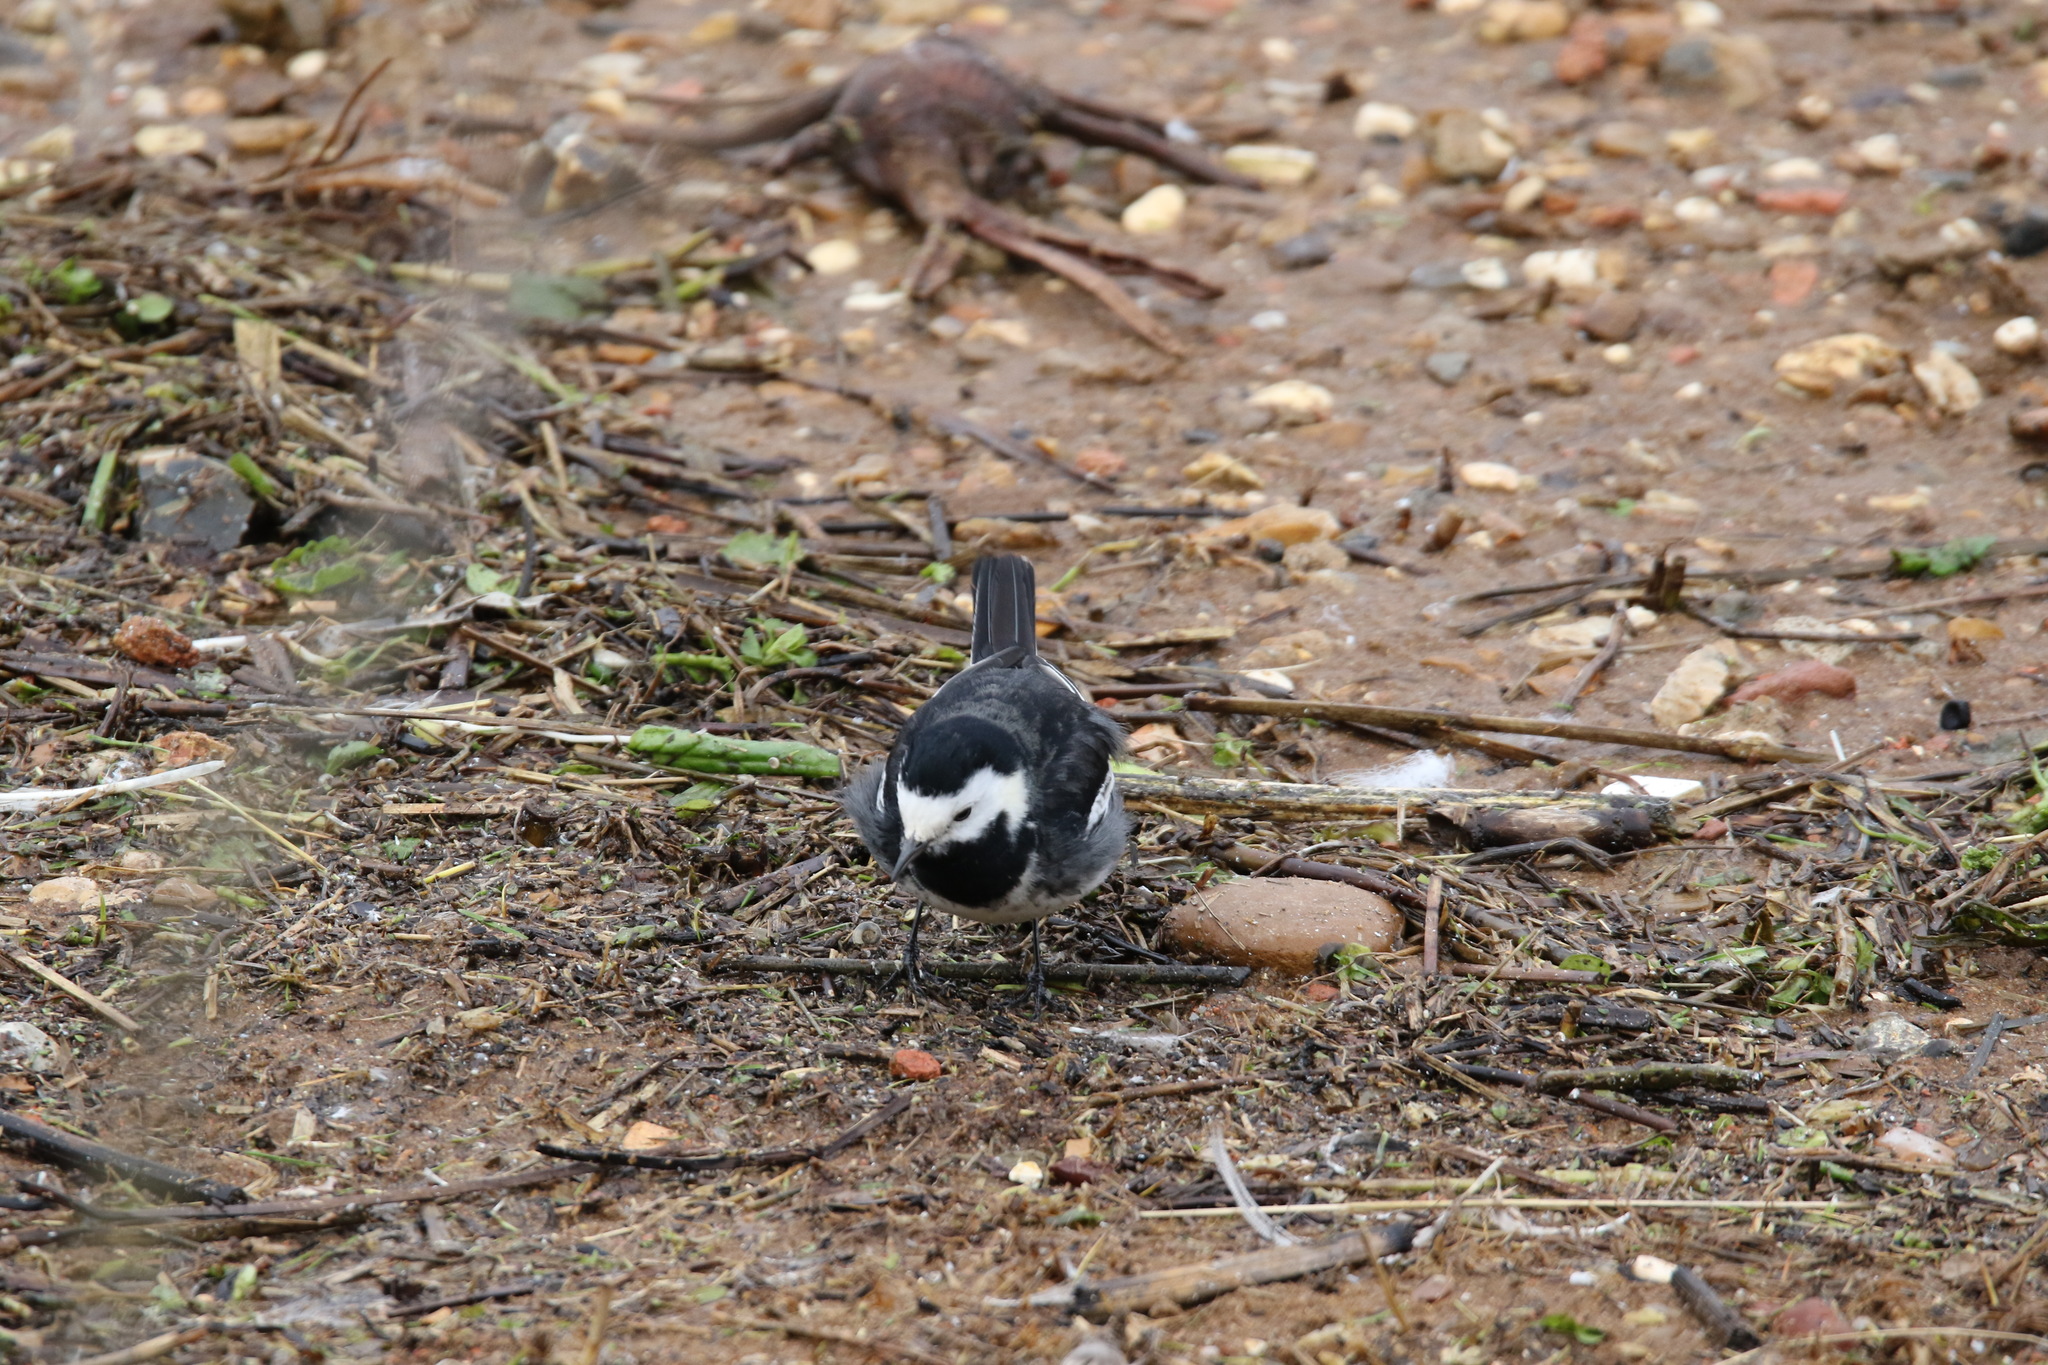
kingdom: Animalia
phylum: Chordata
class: Aves
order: Passeriformes
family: Motacillidae
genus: Motacilla
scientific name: Motacilla alba
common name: White wagtail
